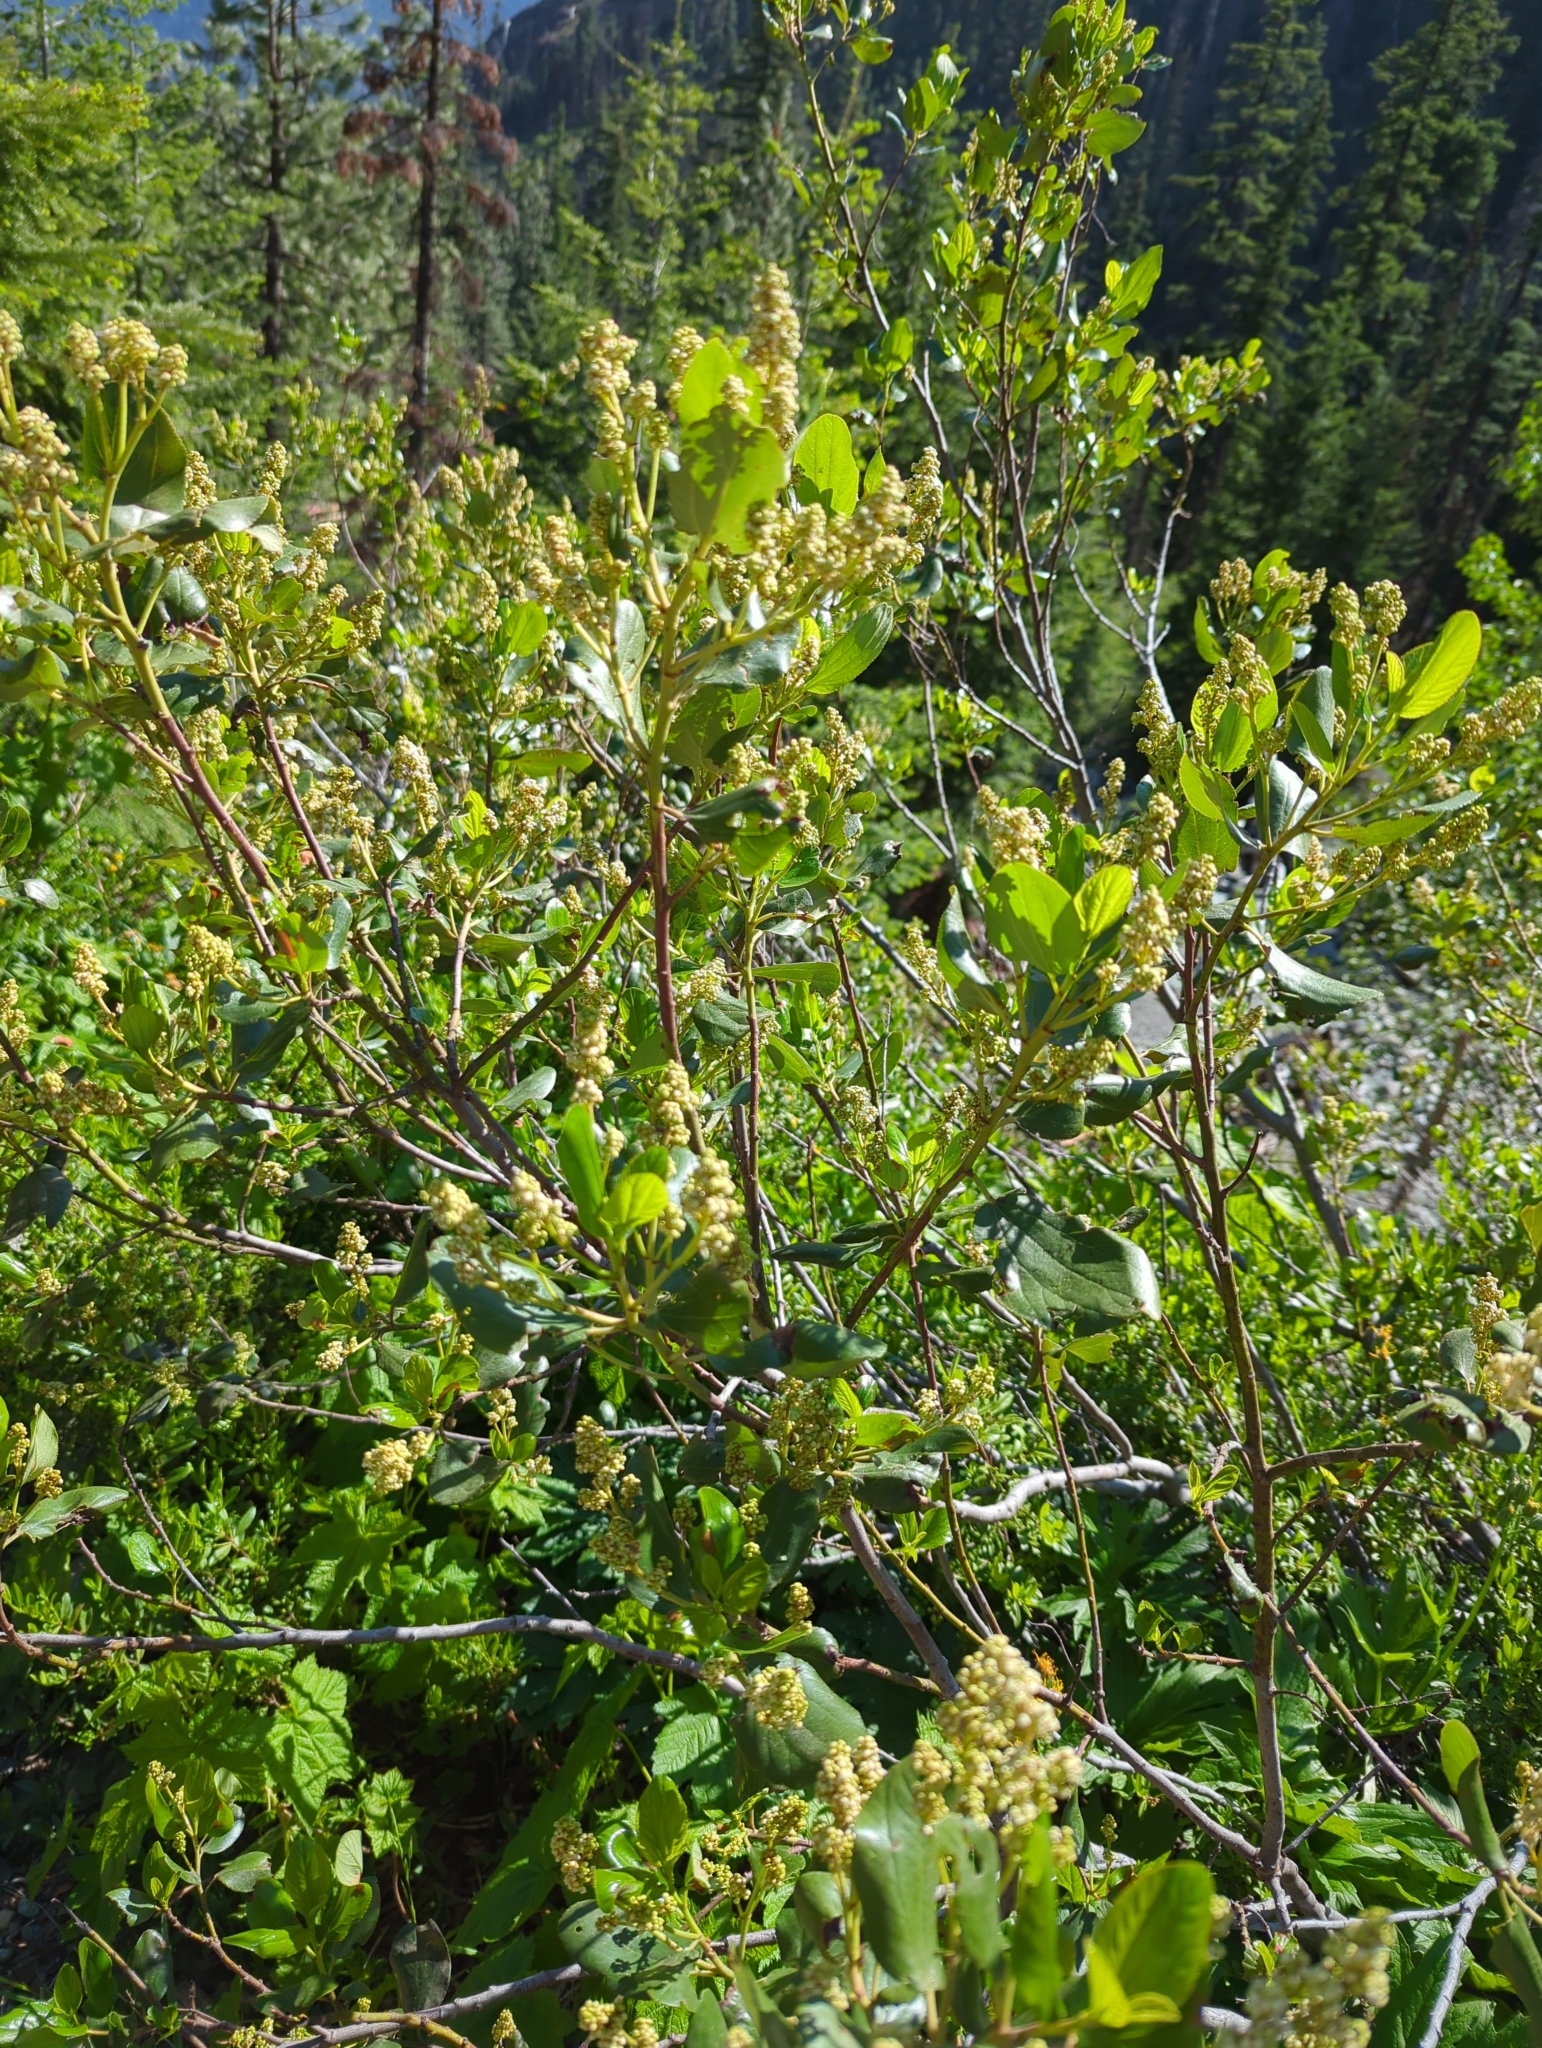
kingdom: Plantae
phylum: Tracheophyta
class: Magnoliopsida
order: Rosales
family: Rhamnaceae
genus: Ceanothus
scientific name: Ceanothus velutinus
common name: Snowbrush
